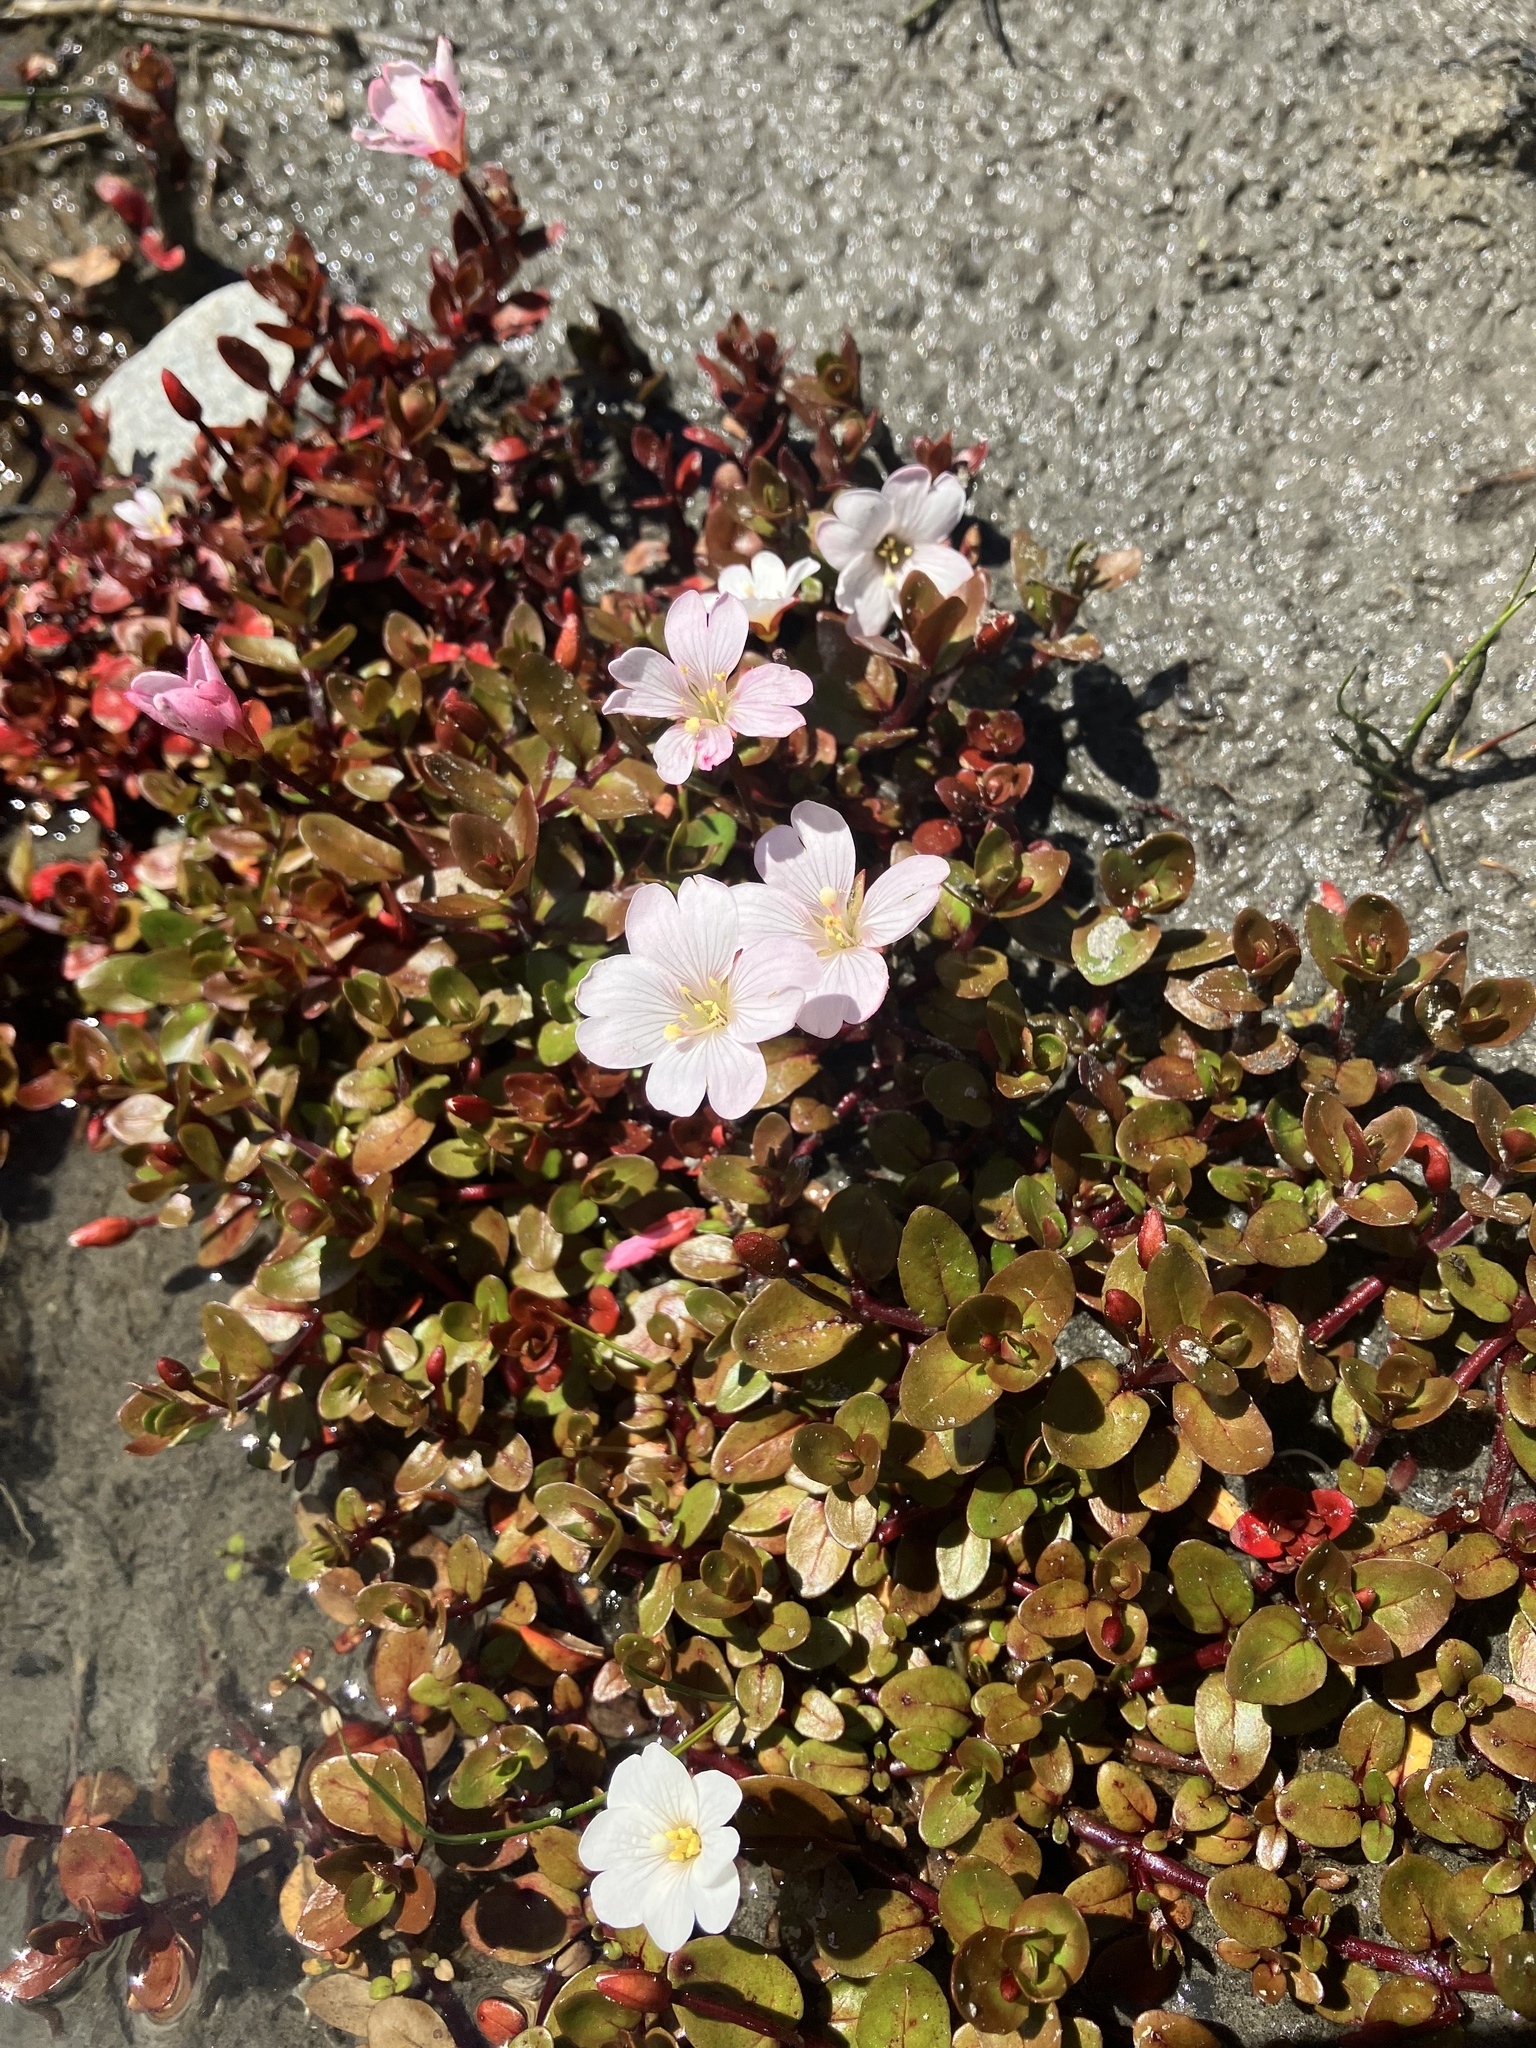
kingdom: Plantae
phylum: Tracheophyta
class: Magnoliopsida
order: Myrtales
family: Onagraceae
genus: Epilobium
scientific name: Epilobium macropus
